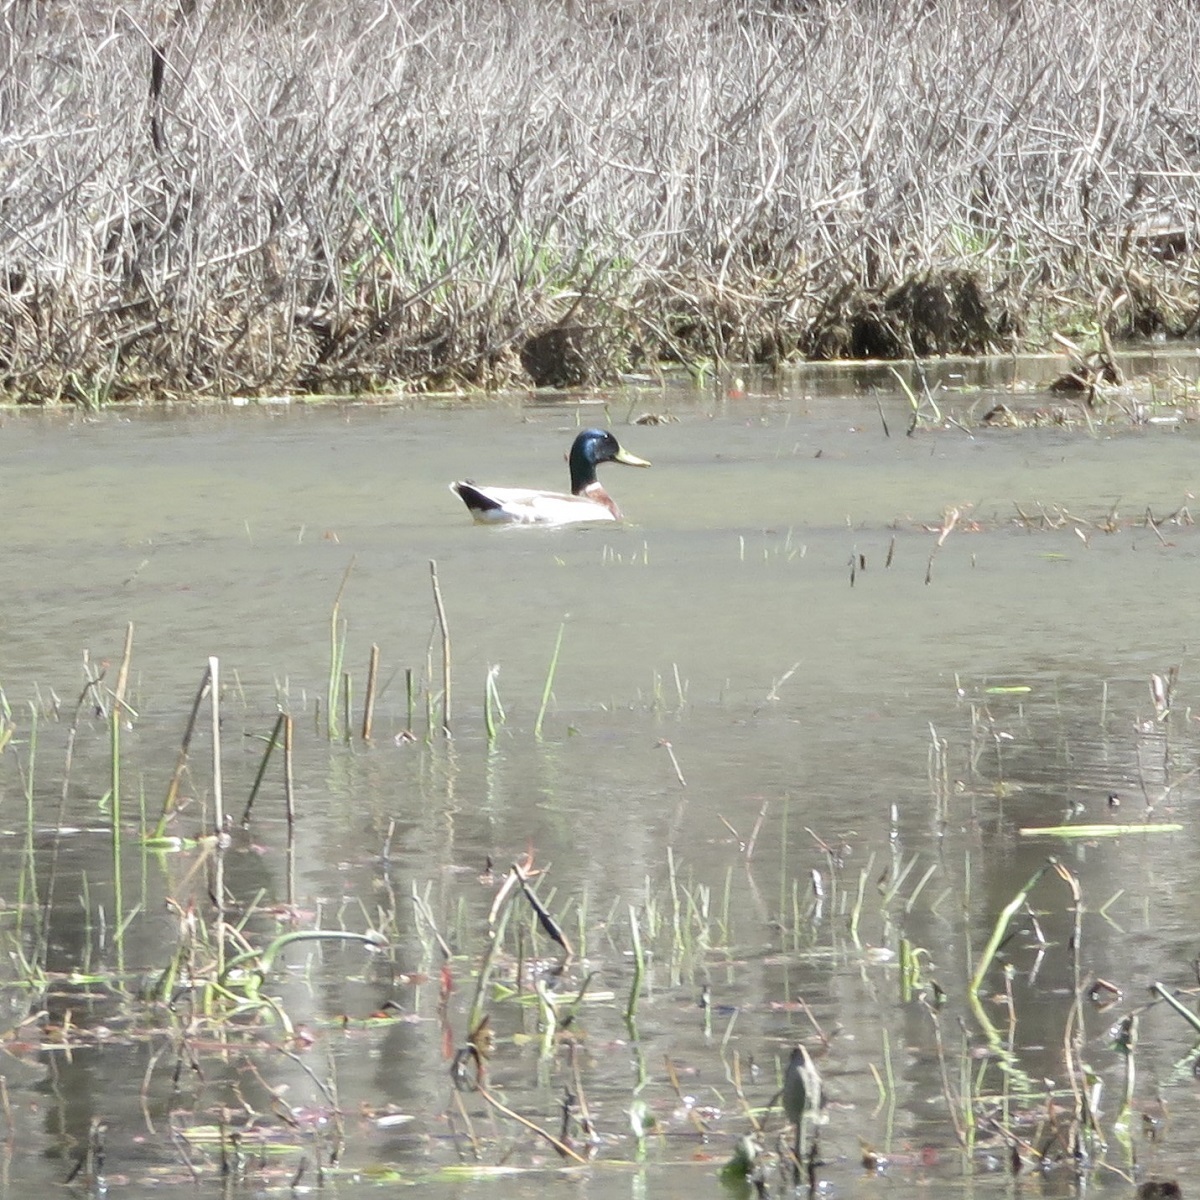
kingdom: Animalia
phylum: Chordata
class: Aves
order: Anseriformes
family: Anatidae
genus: Anas
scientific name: Anas platyrhynchos
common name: Mallard
